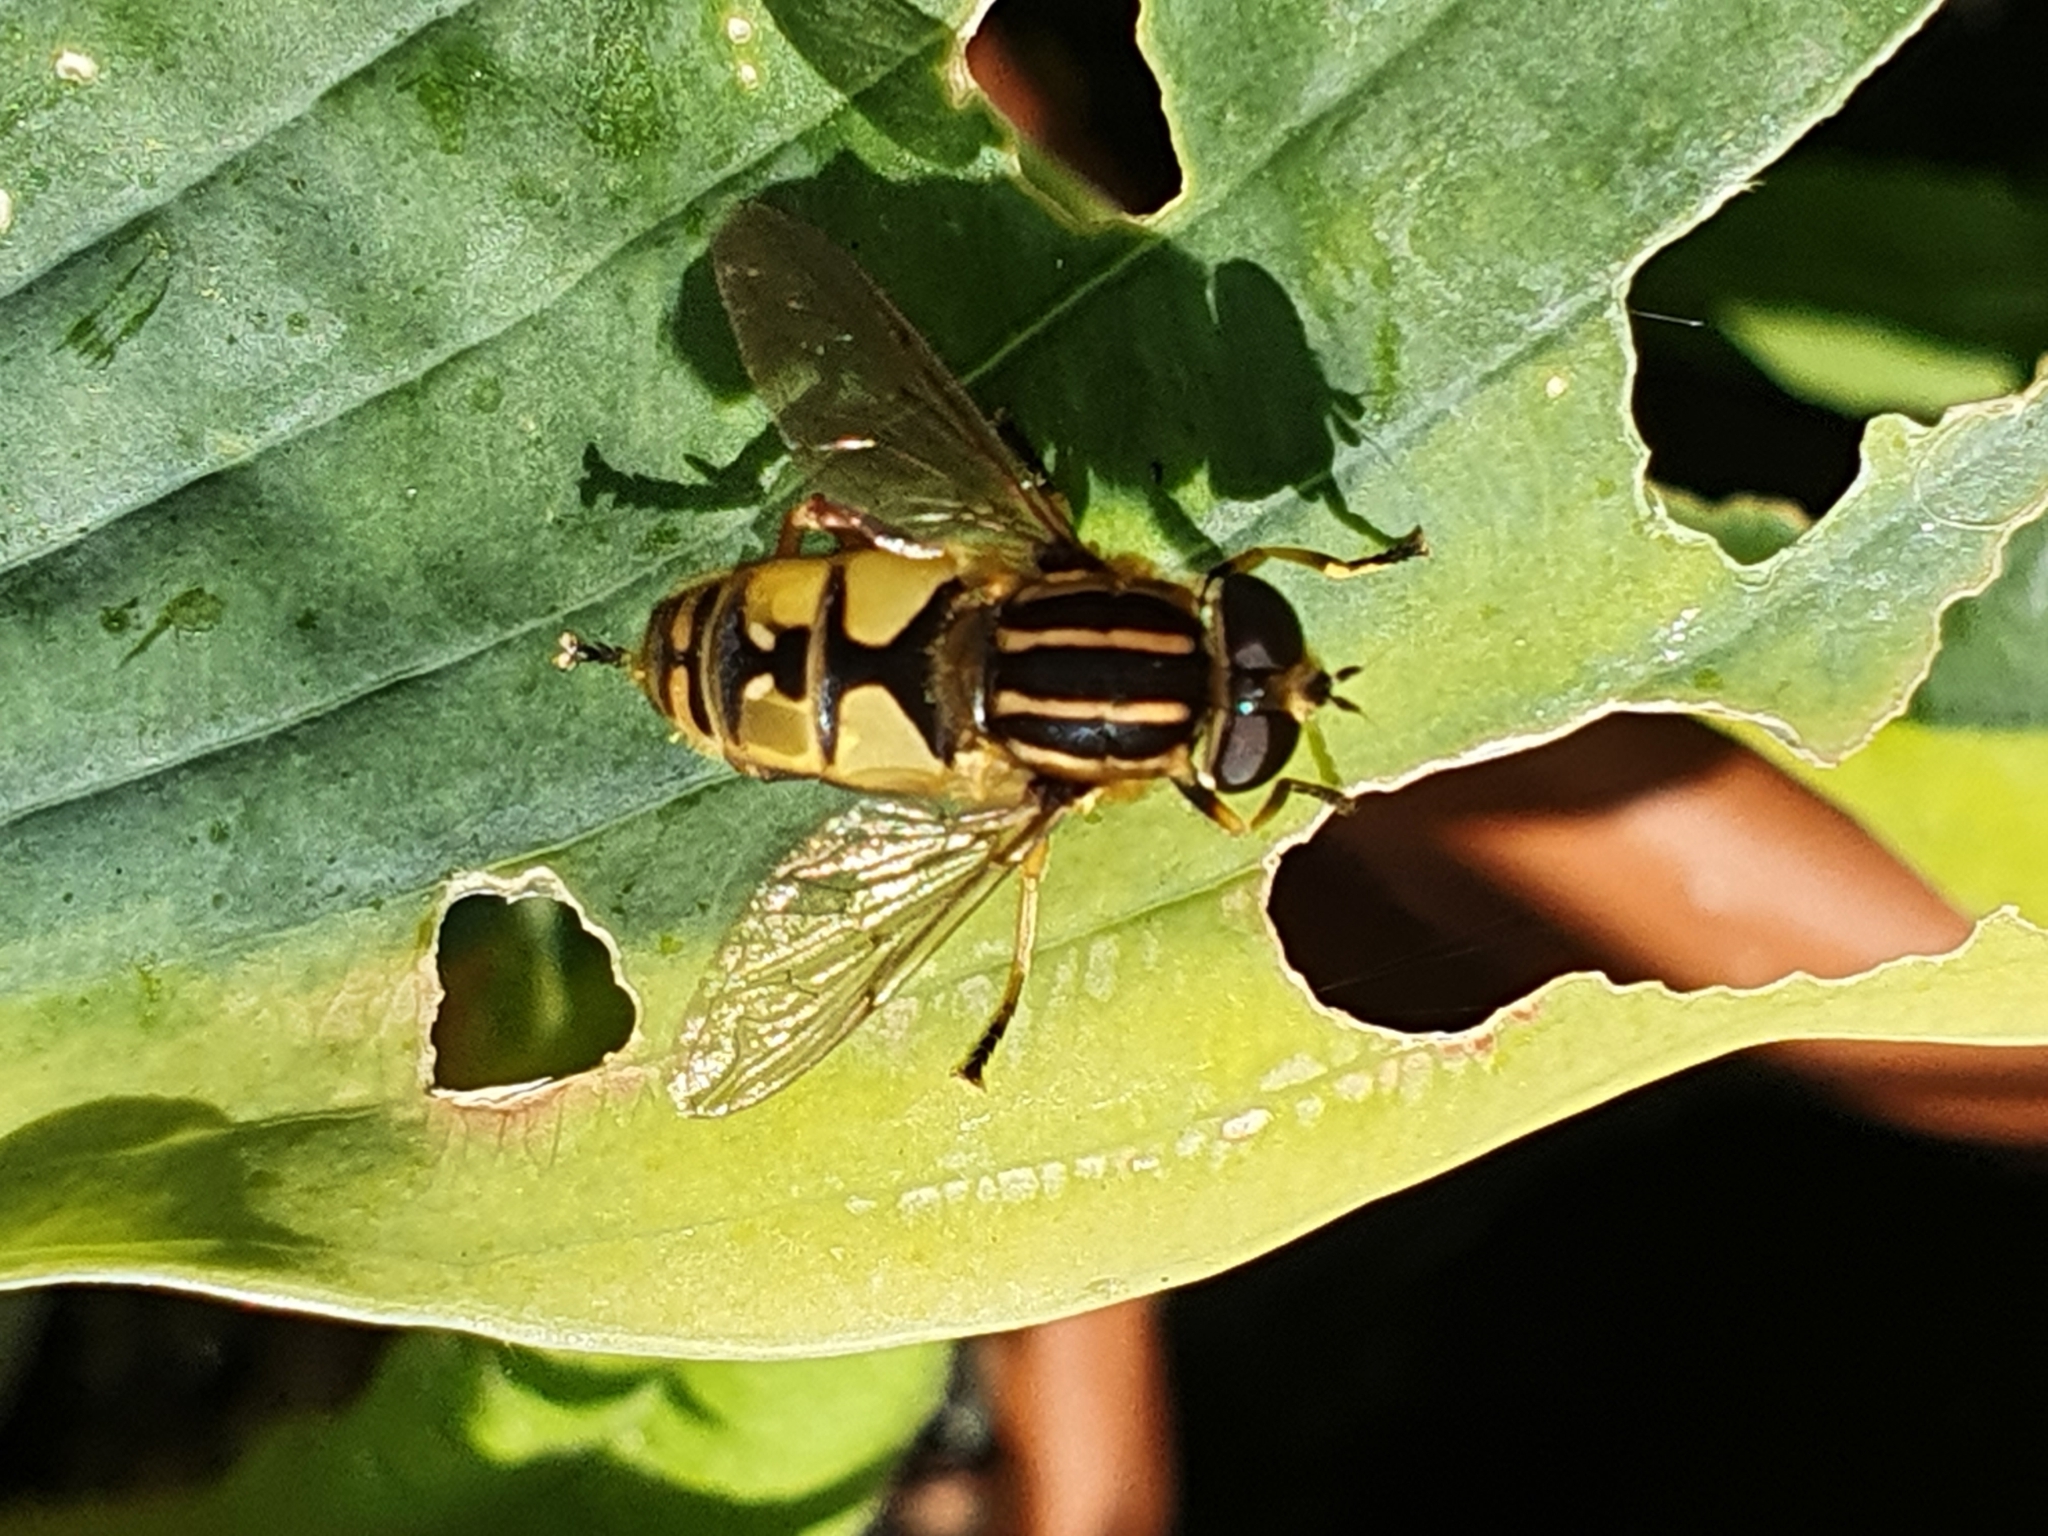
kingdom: Animalia
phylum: Arthropoda
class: Insecta
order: Diptera
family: Syrphidae
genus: Helophilus
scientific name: Helophilus pendulus
